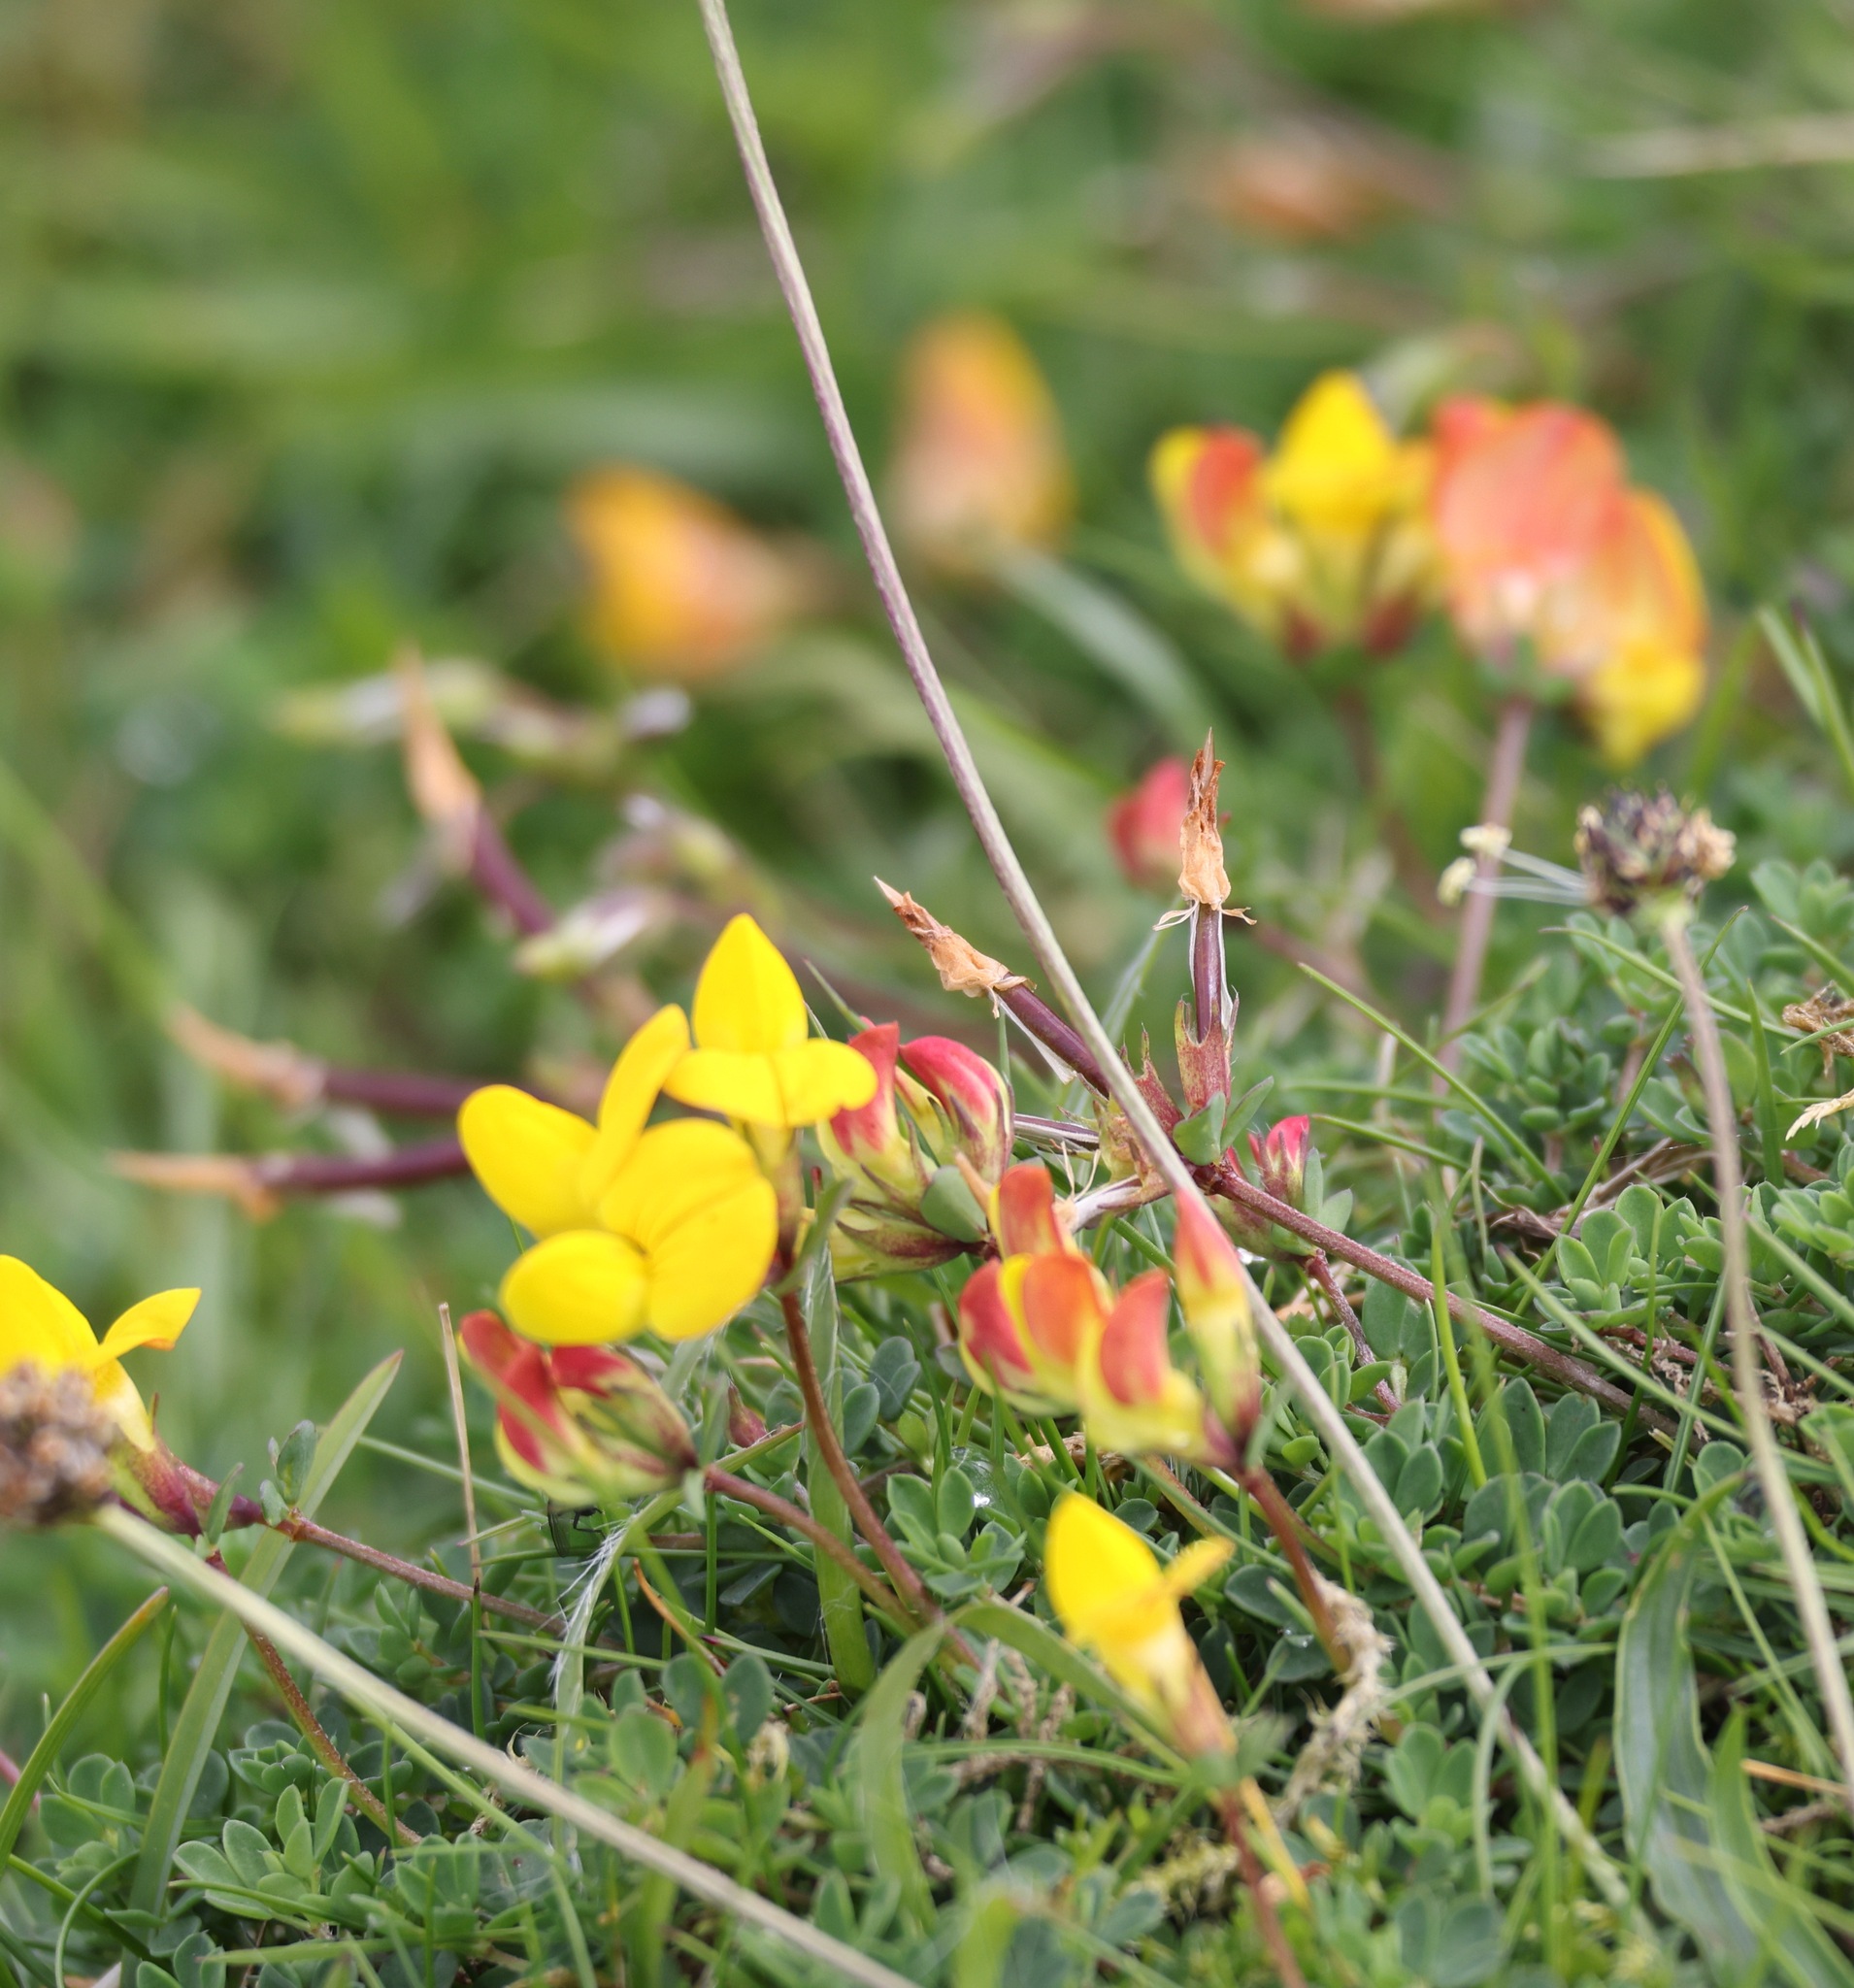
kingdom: Plantae
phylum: Tracheophyta
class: Magnoliopsida
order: Fabales
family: Fabaceae
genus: Lotus
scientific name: Lotus corniculatus
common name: Common bird's-foot-trefoil
